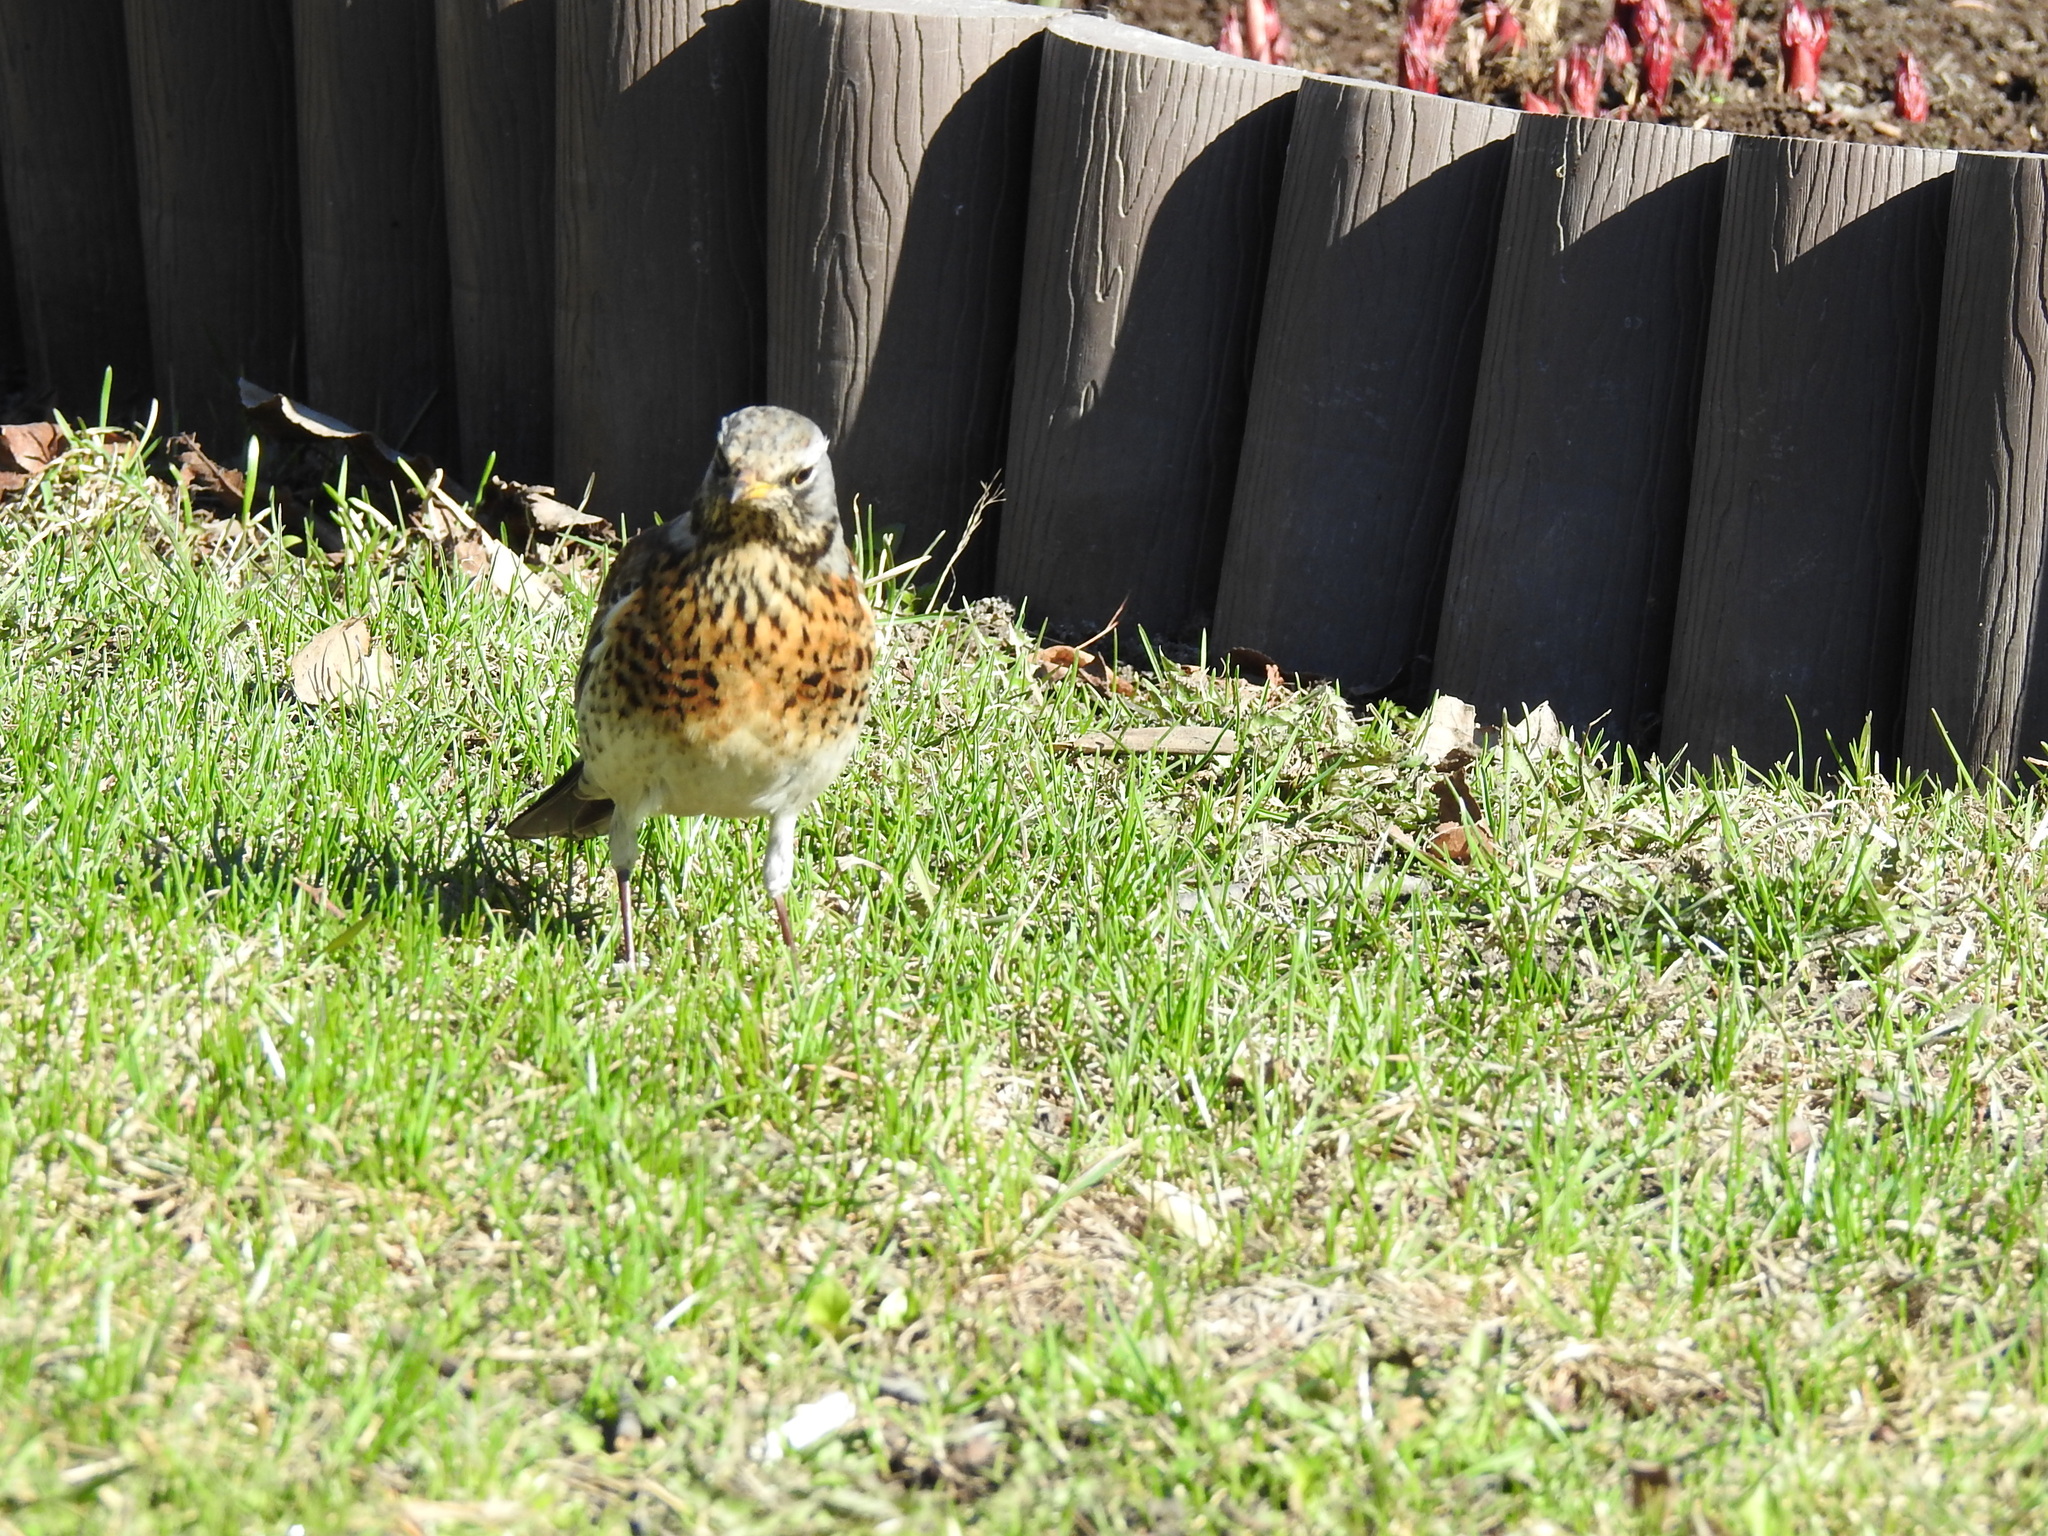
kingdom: Animalia
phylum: Chordata
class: Aves
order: Passeriformes
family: Turdidae
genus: Turdus
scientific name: Turdus pilaris
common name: Fieldfare
